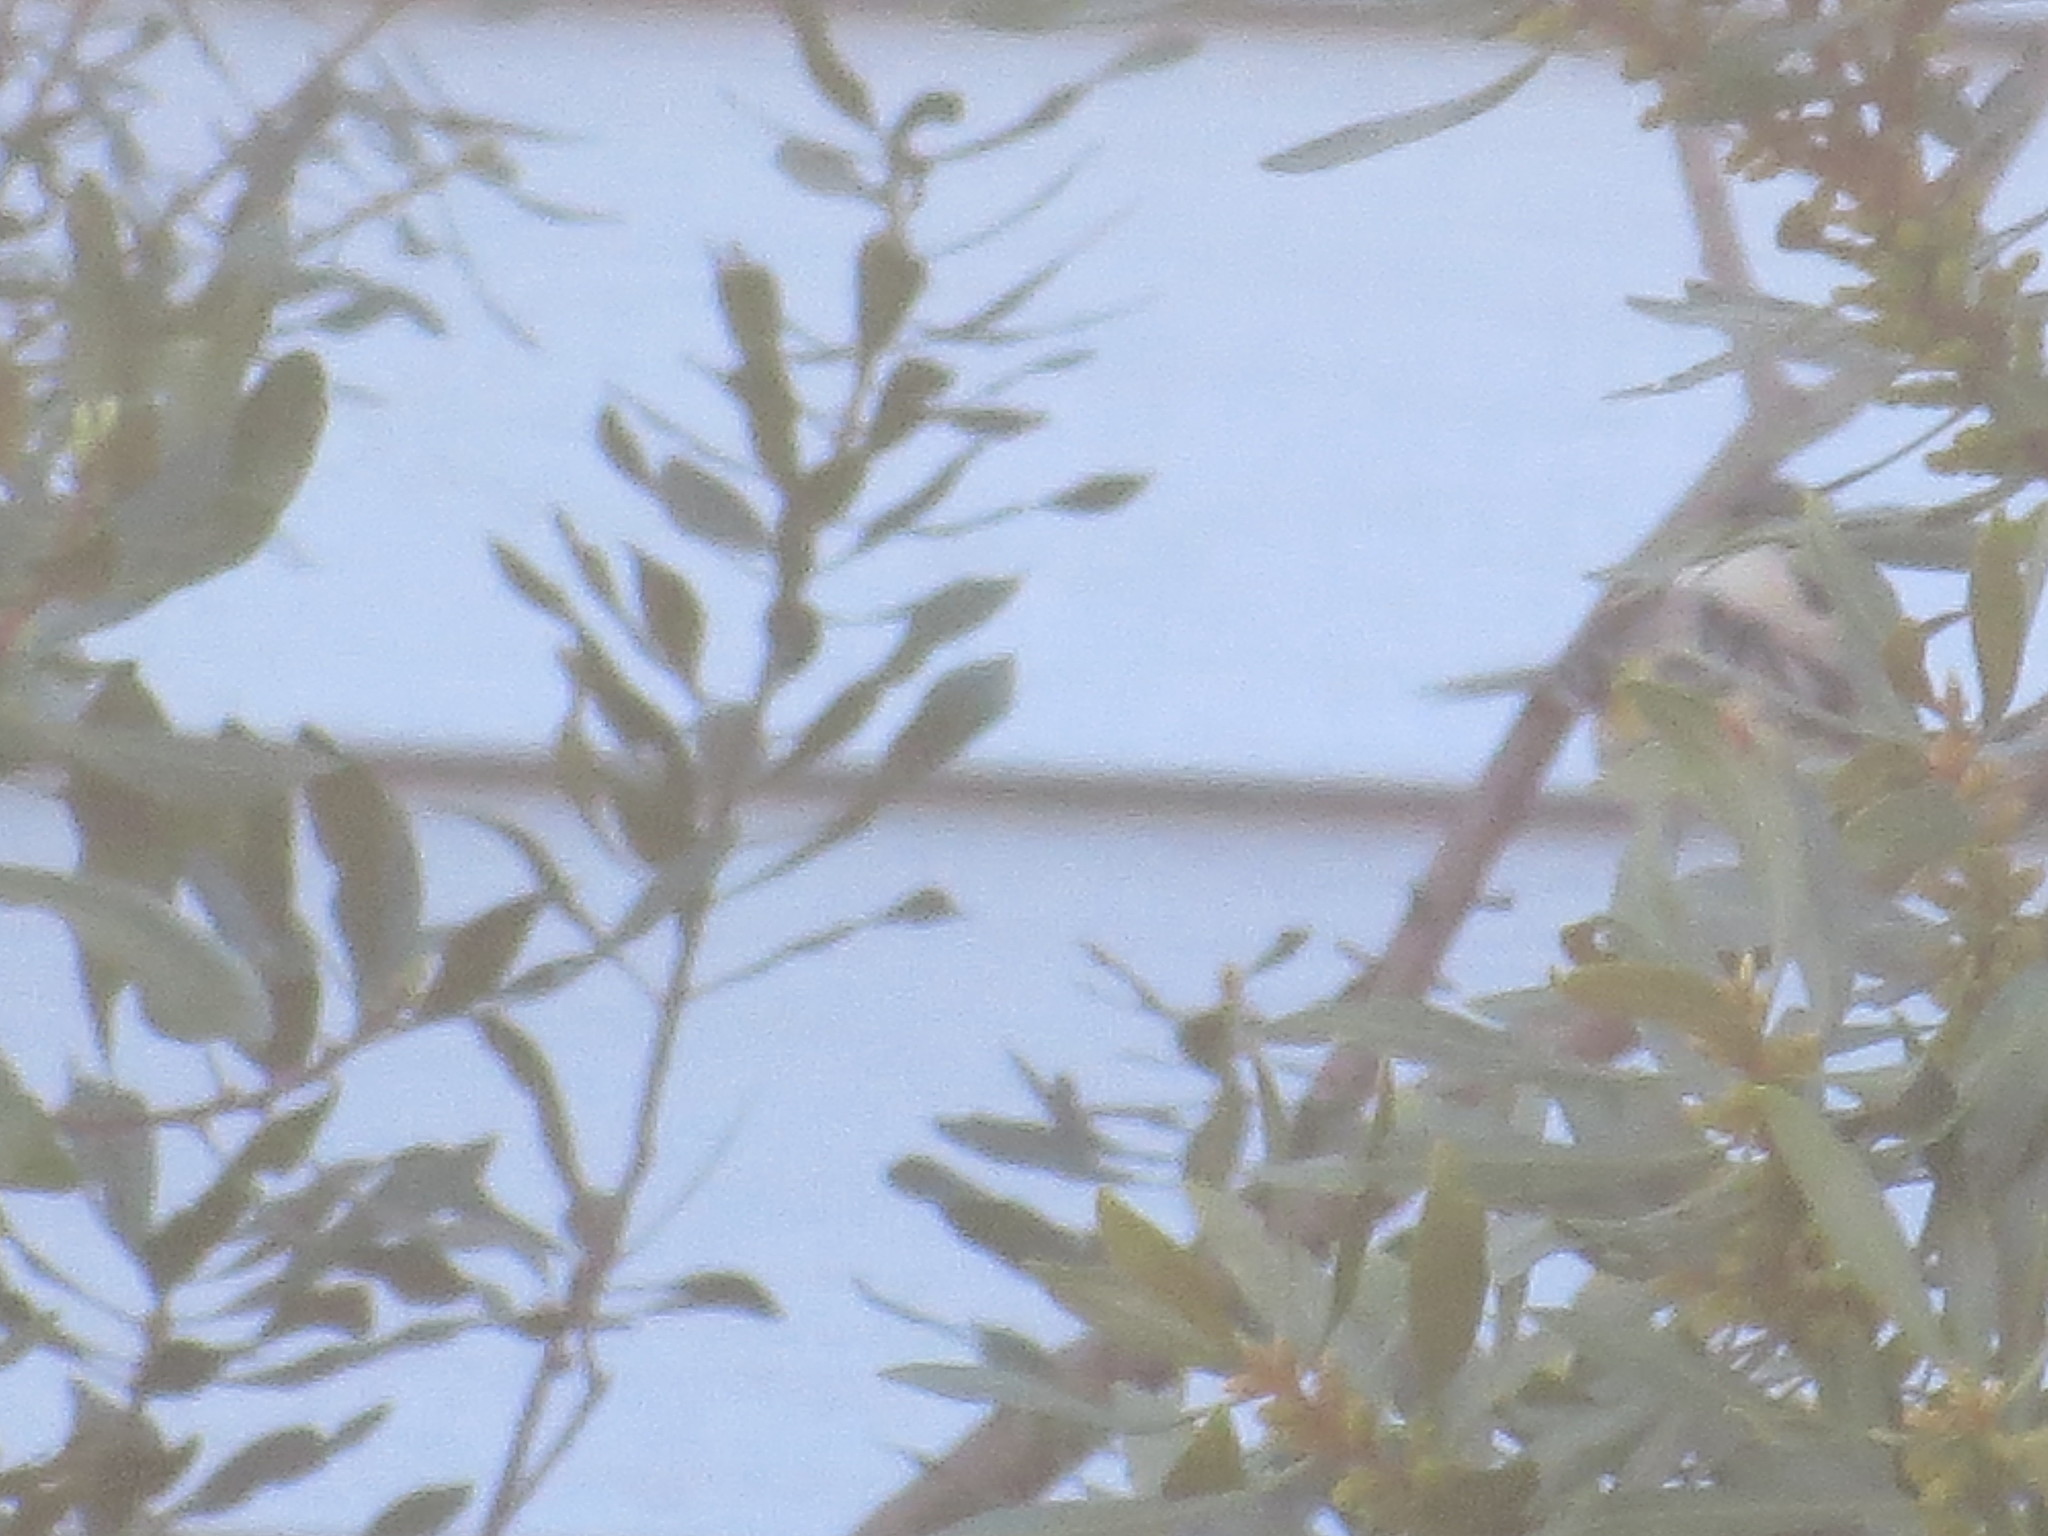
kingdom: Animalia
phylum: Chordata
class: Aves
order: Passeriformes
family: Parulidae
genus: Setophaga
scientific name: Setophaga coronata
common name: Myrtle warbler
